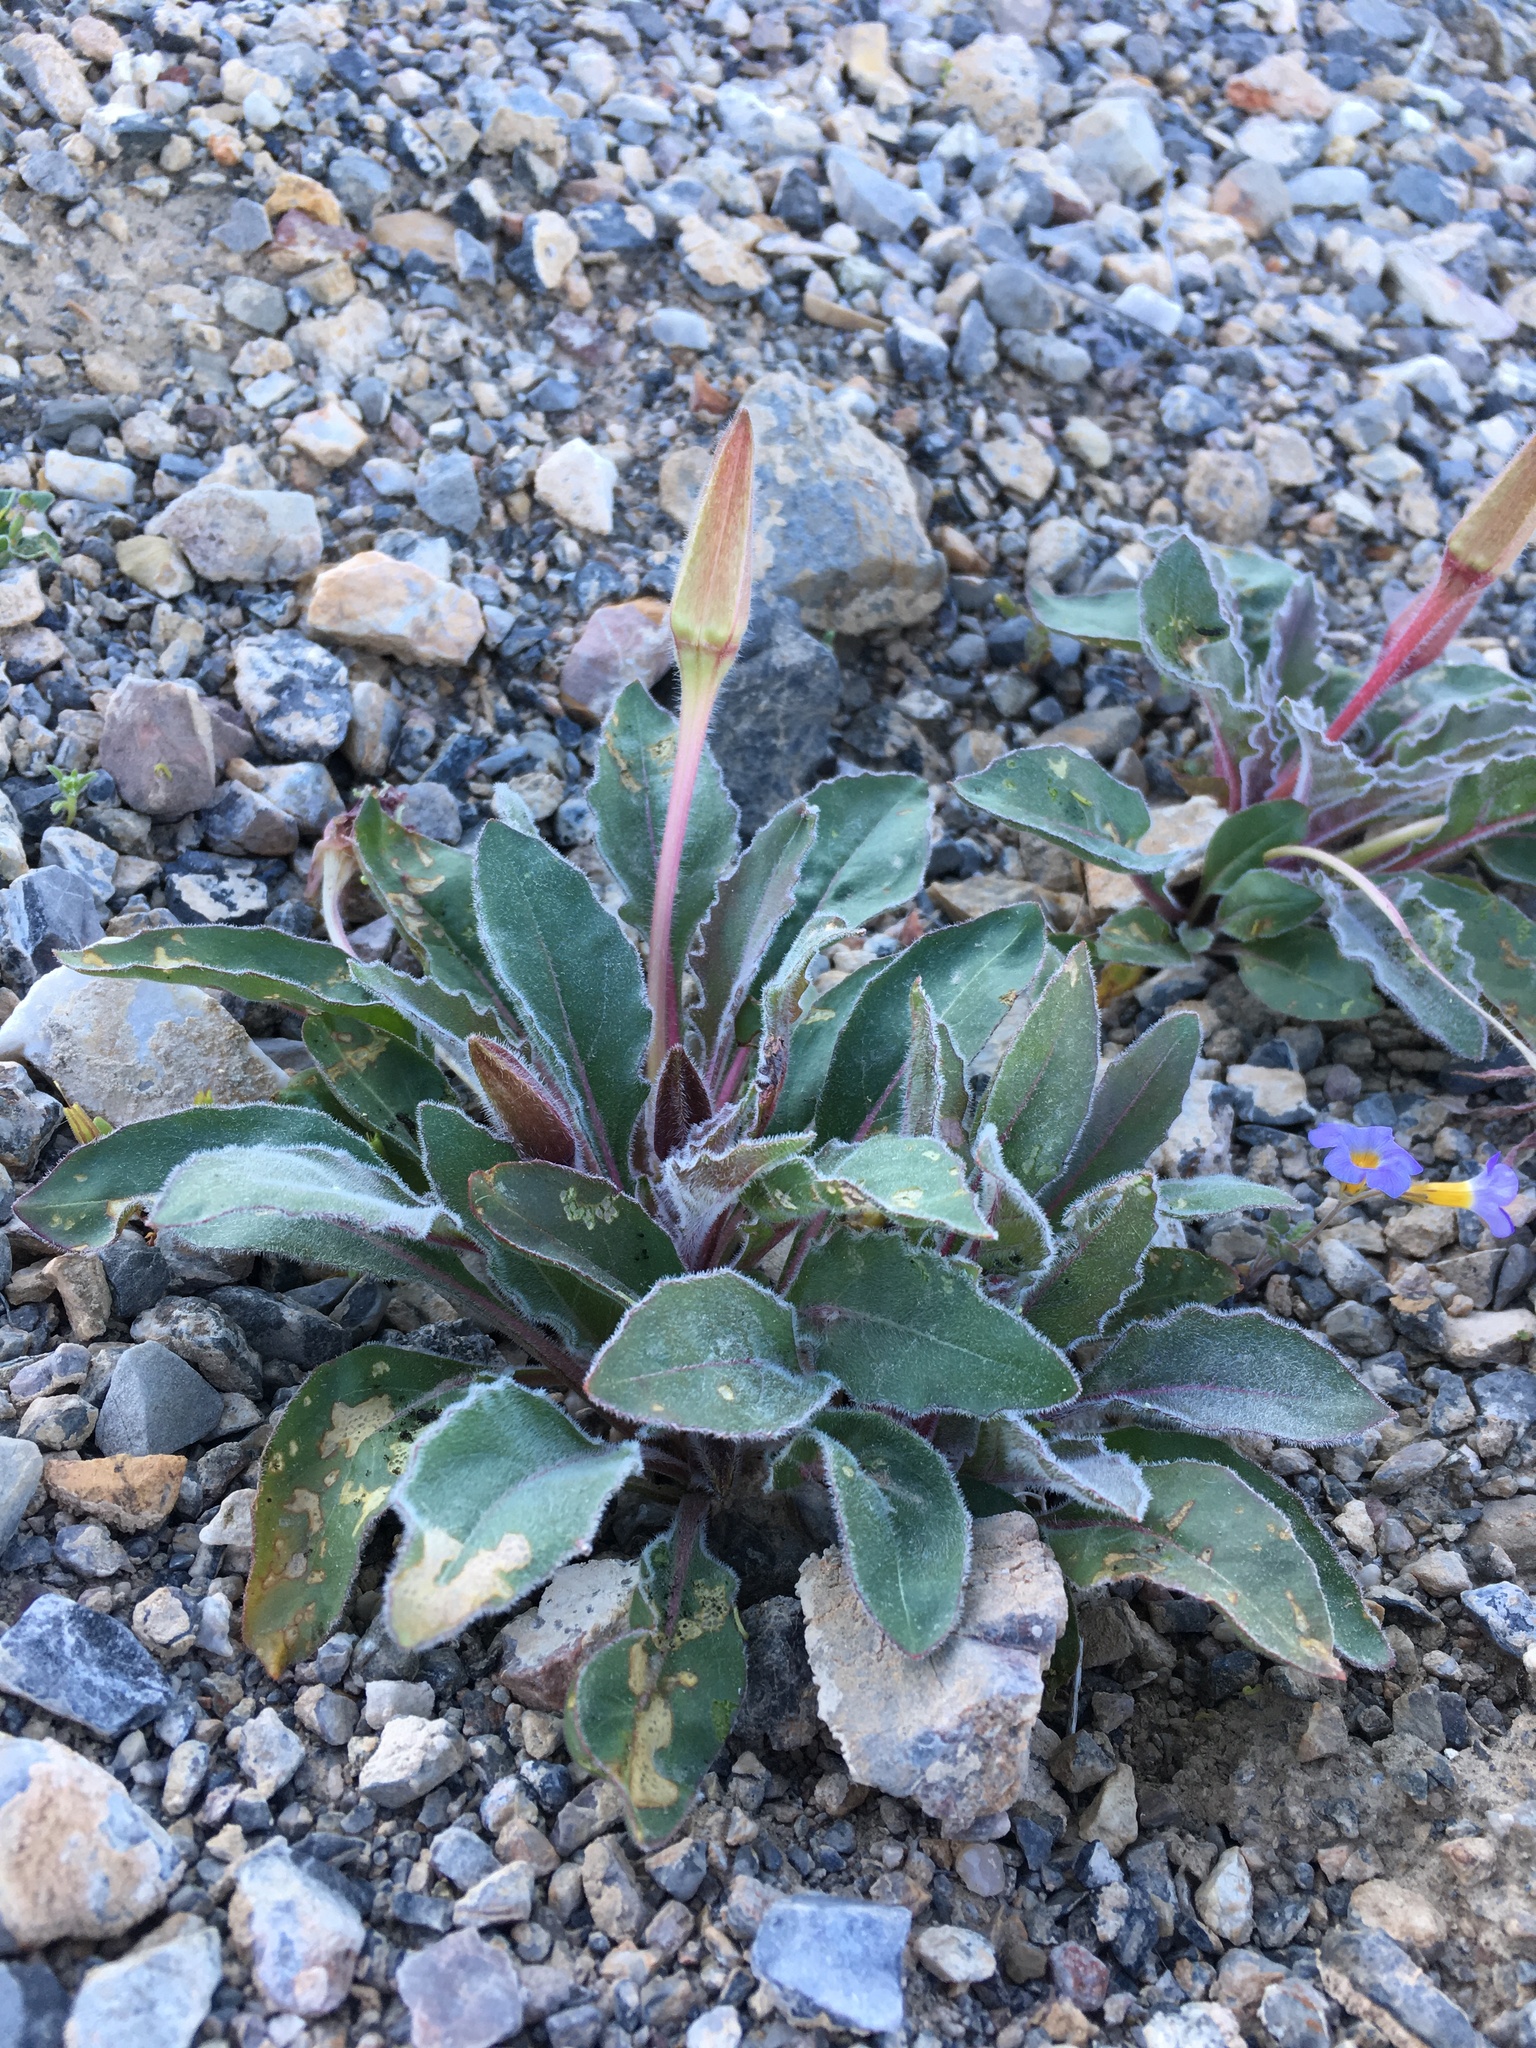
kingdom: Plantae
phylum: Tracheophyta
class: Magnoliopsida
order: Myrtales
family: Onagraceae
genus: Oenothera
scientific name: Oenothera cespitosa
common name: Tufted evening-primrose
